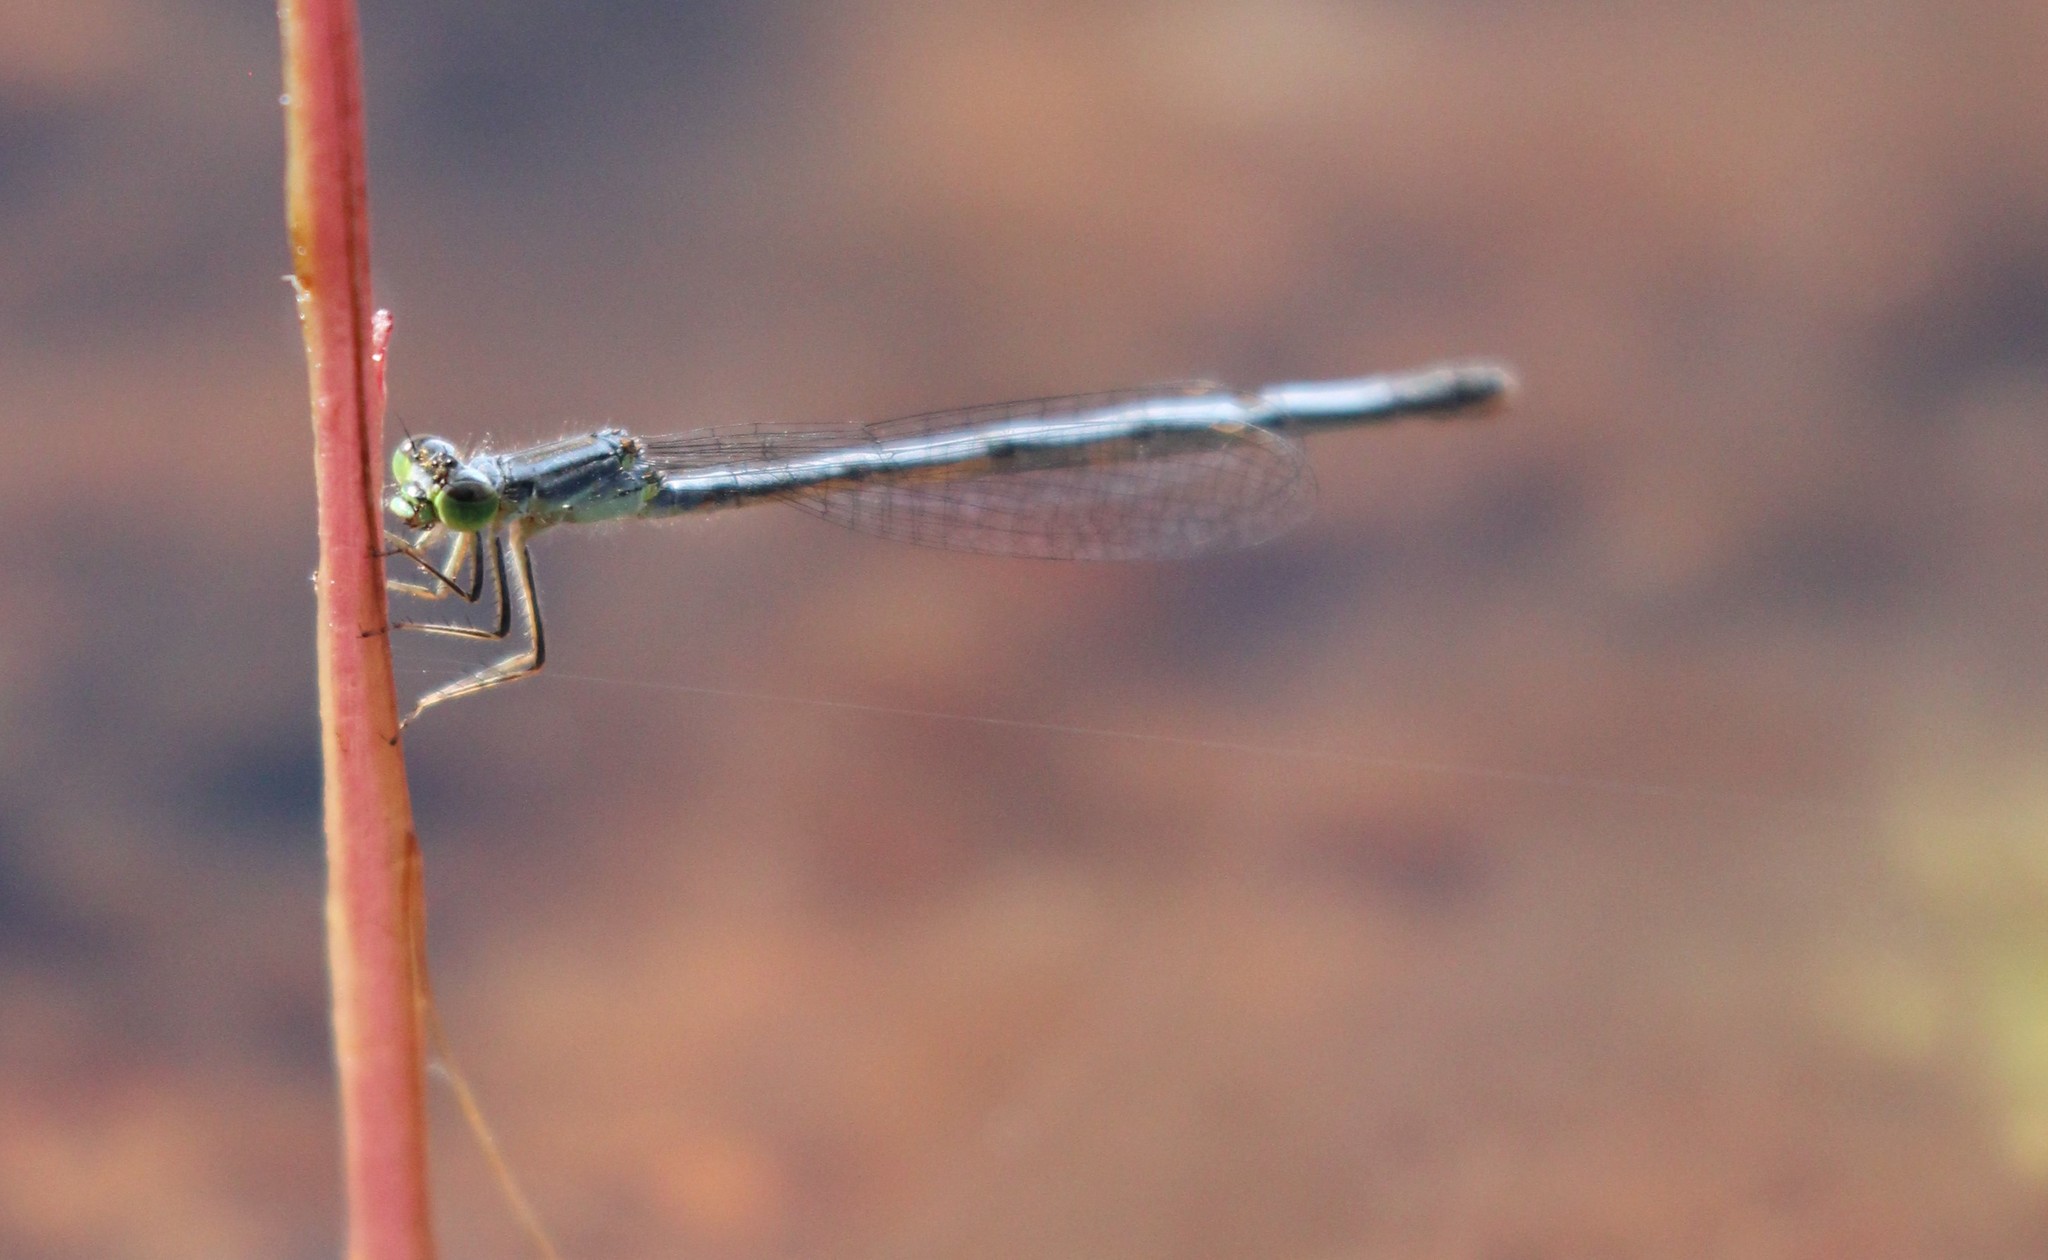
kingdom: Animalia
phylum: Arthropoda
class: Insecta
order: Odonata
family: Coenagrionidae
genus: Ischnura
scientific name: Ischnura verticalis
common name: Eastern forktail
